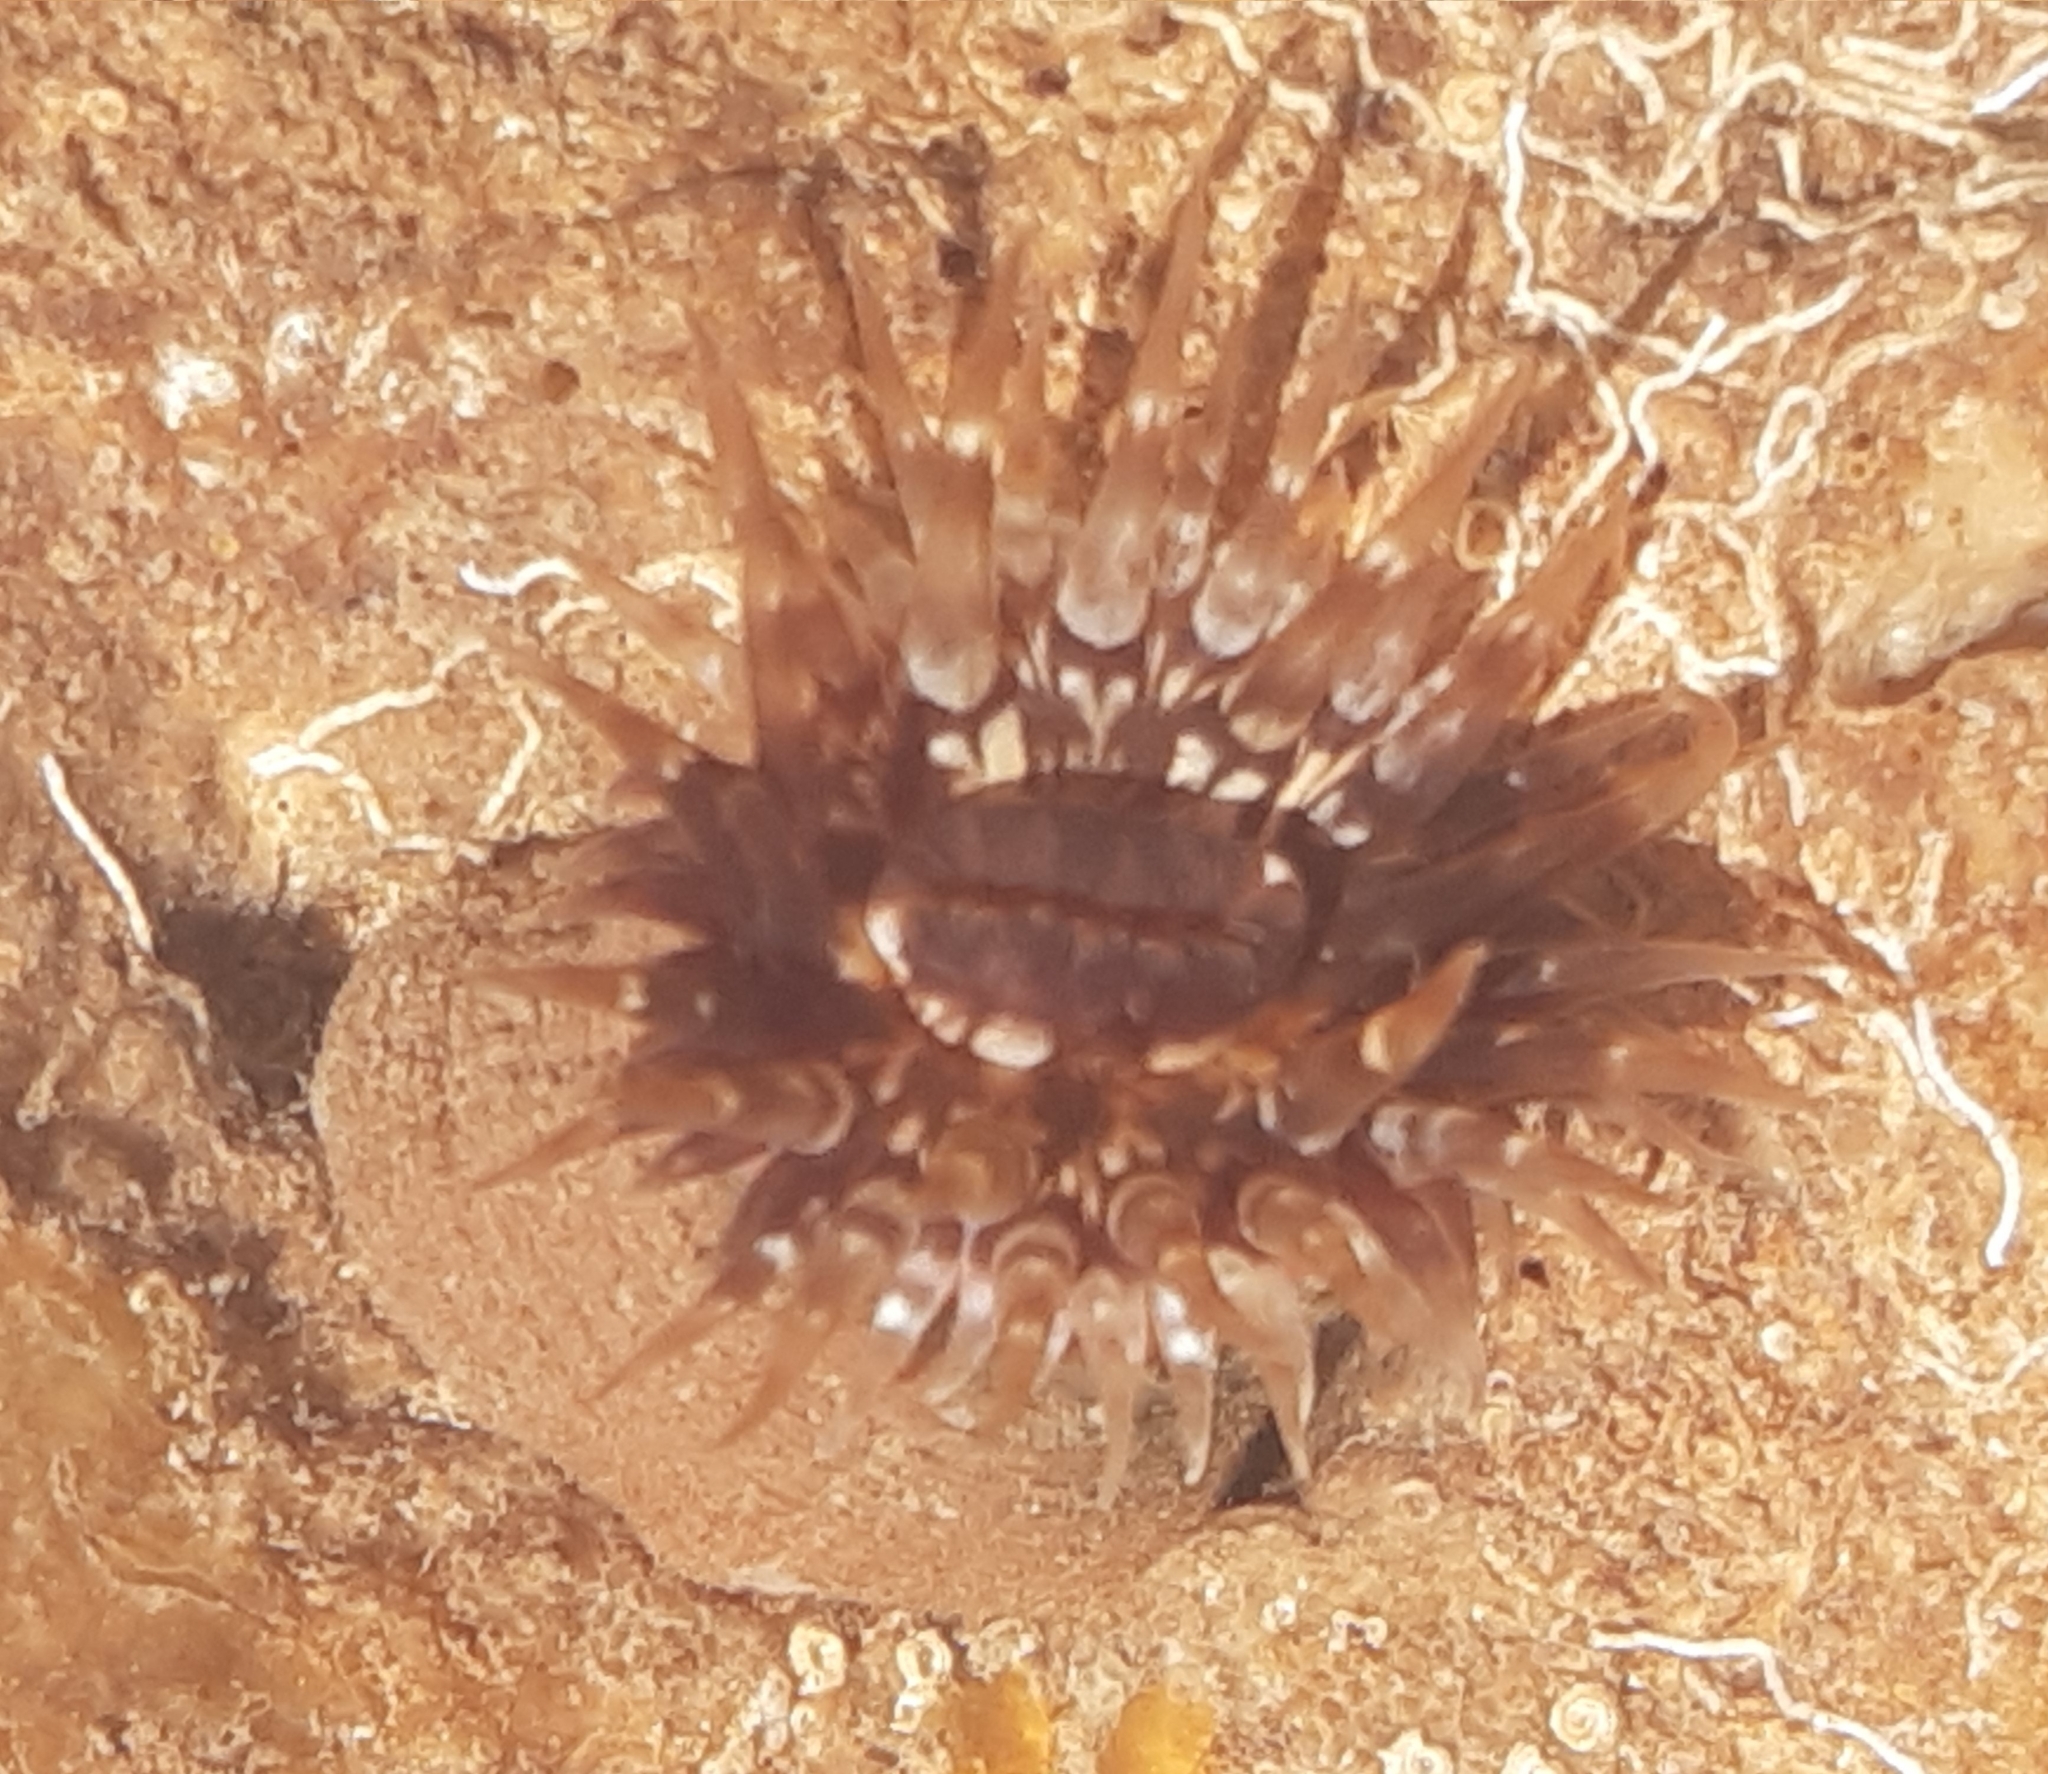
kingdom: Animalia
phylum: Cnidaria
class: Anthozoa
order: Actiniaria
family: Andvakiidae
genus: Telmatactis
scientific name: Telmatactis forskalii
